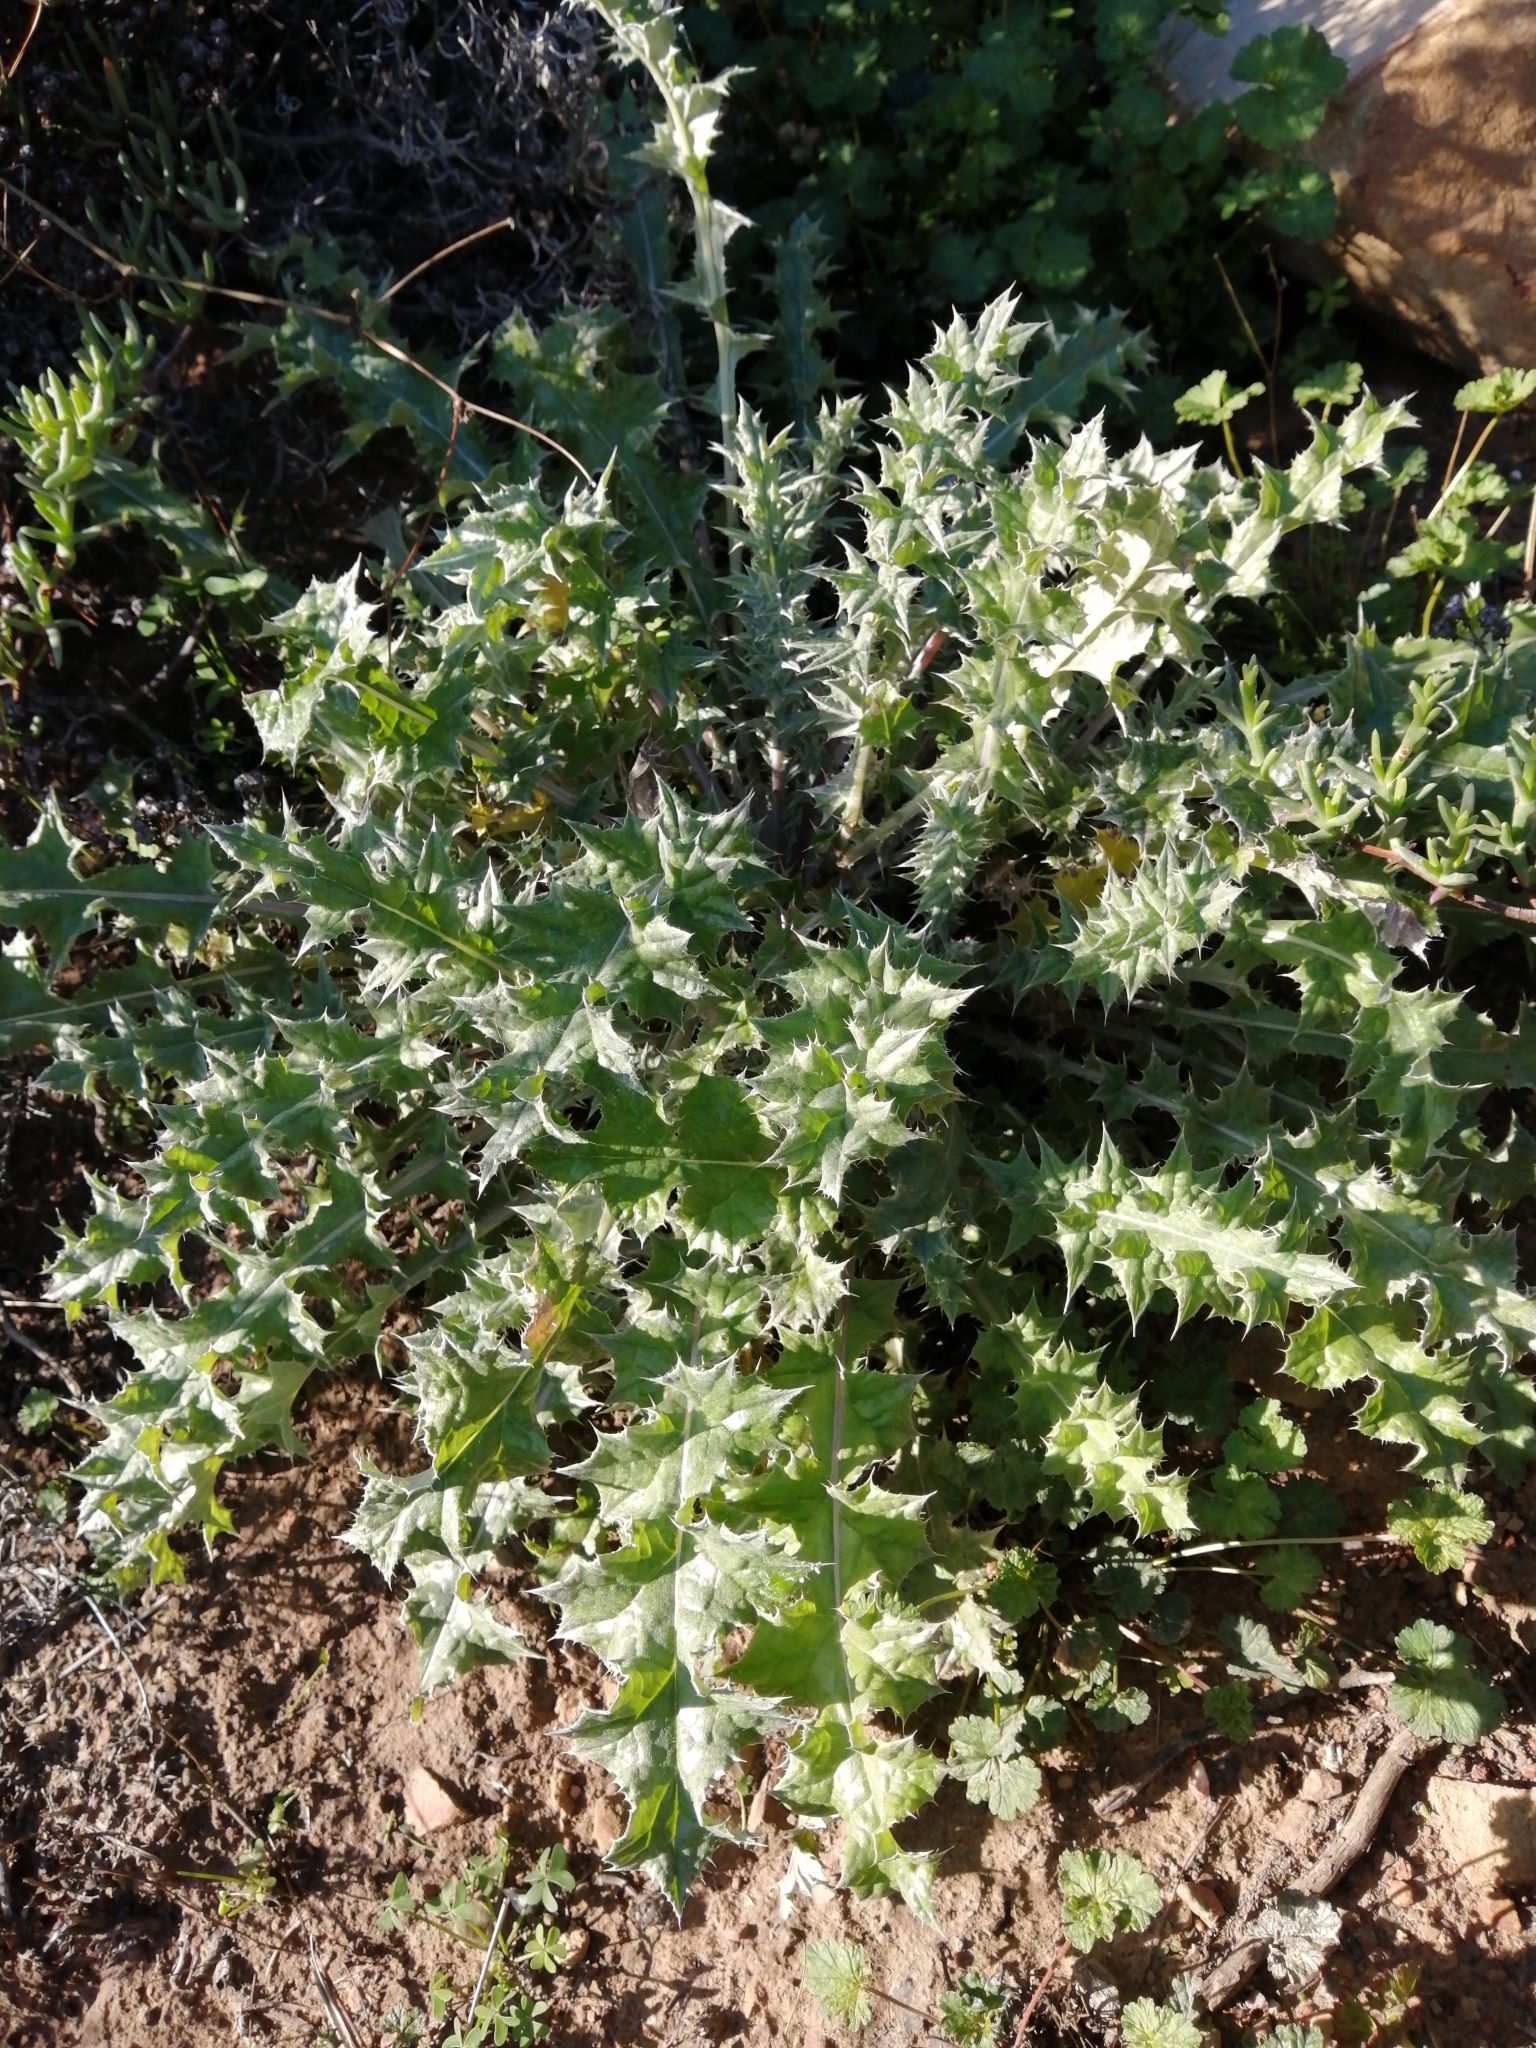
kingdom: Plantae
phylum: Tracheophyta
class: Magnoliopsida
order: Asterales
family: Asteraceae
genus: Berkheya
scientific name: Berkheya heterophylla
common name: Prickly gousblom
